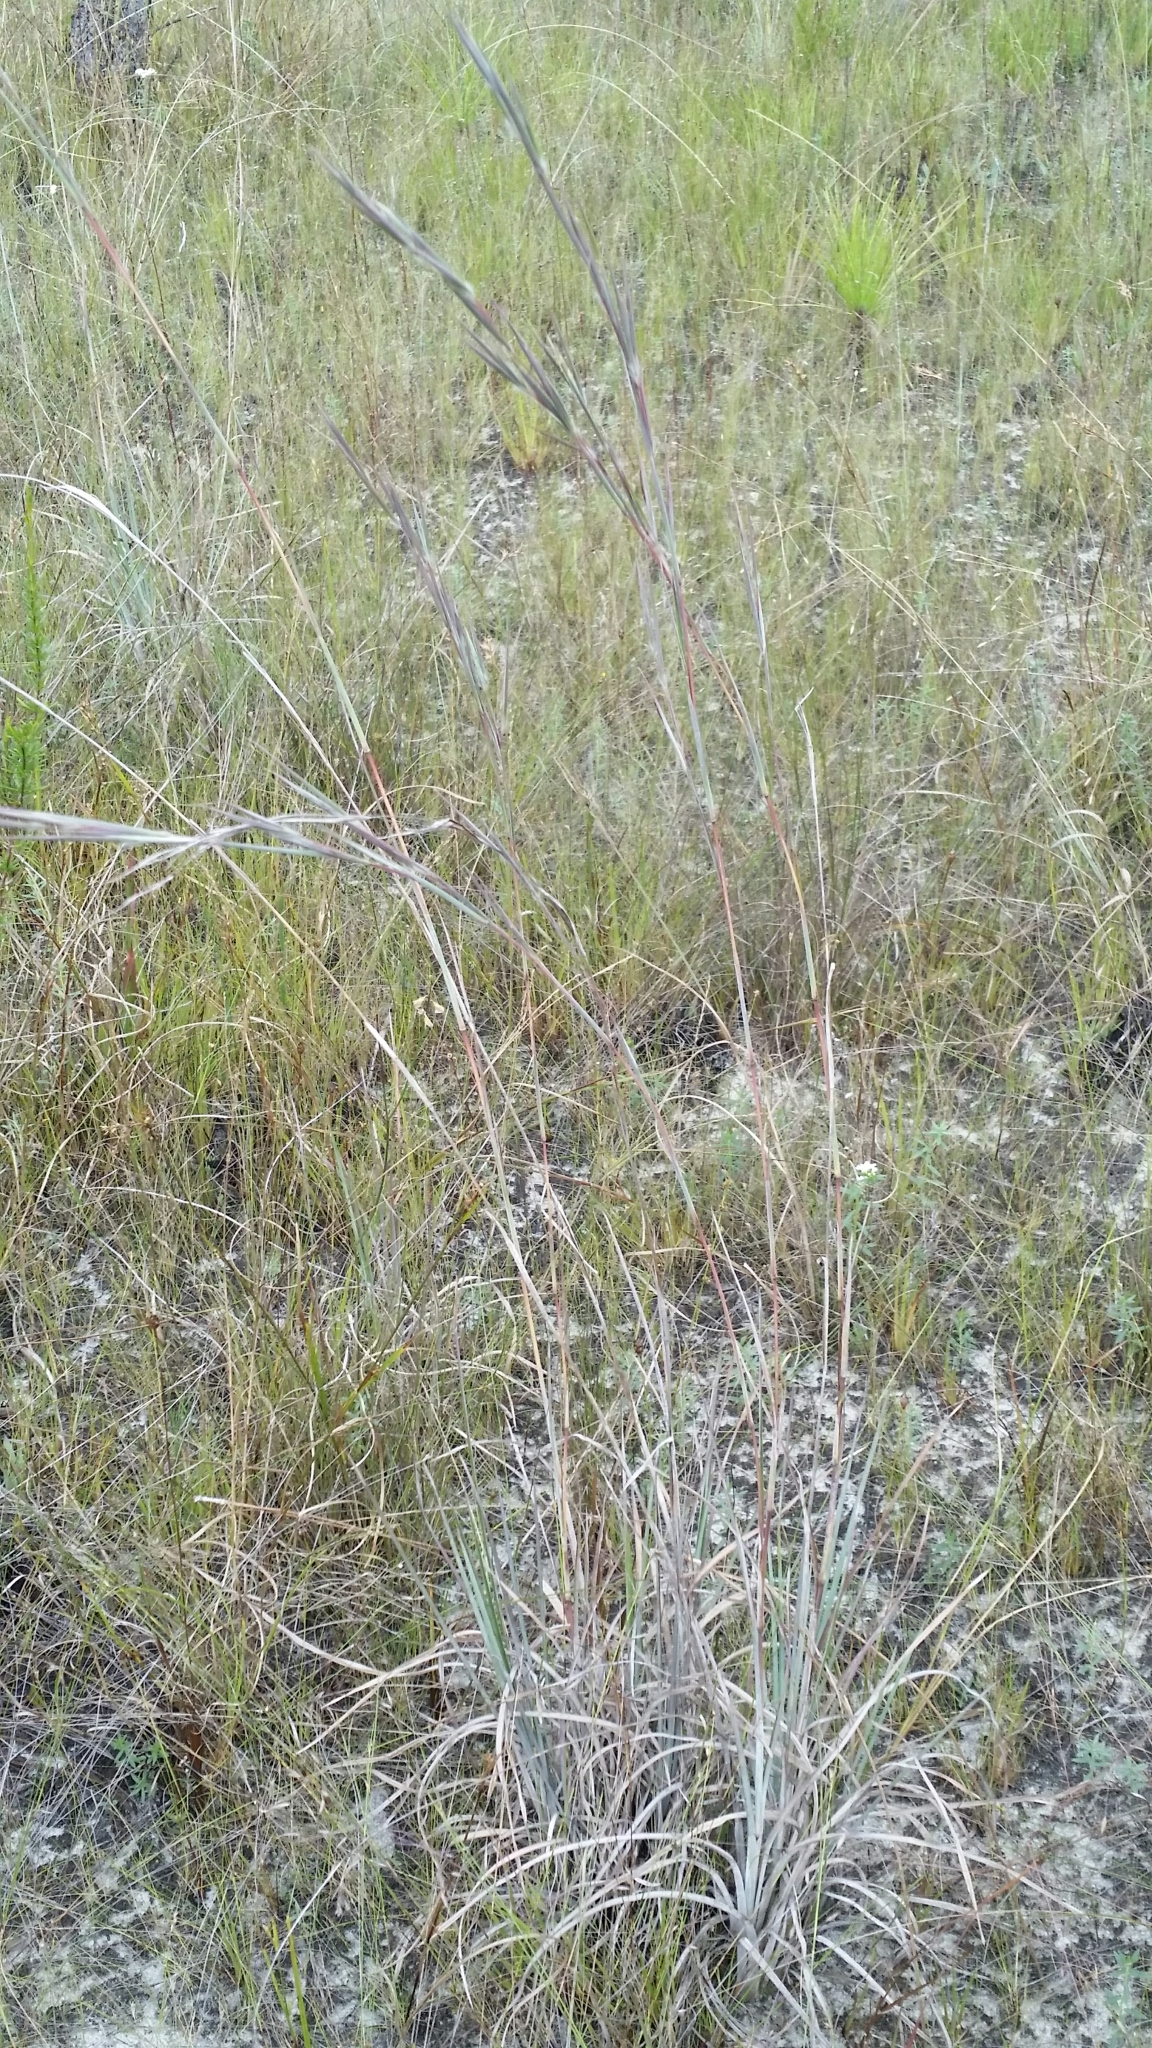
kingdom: Plantae
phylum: Tracheophyta
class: Liliopsida
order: Poales
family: Poaceae
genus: Andropogon
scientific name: Andropogon dealbatus
